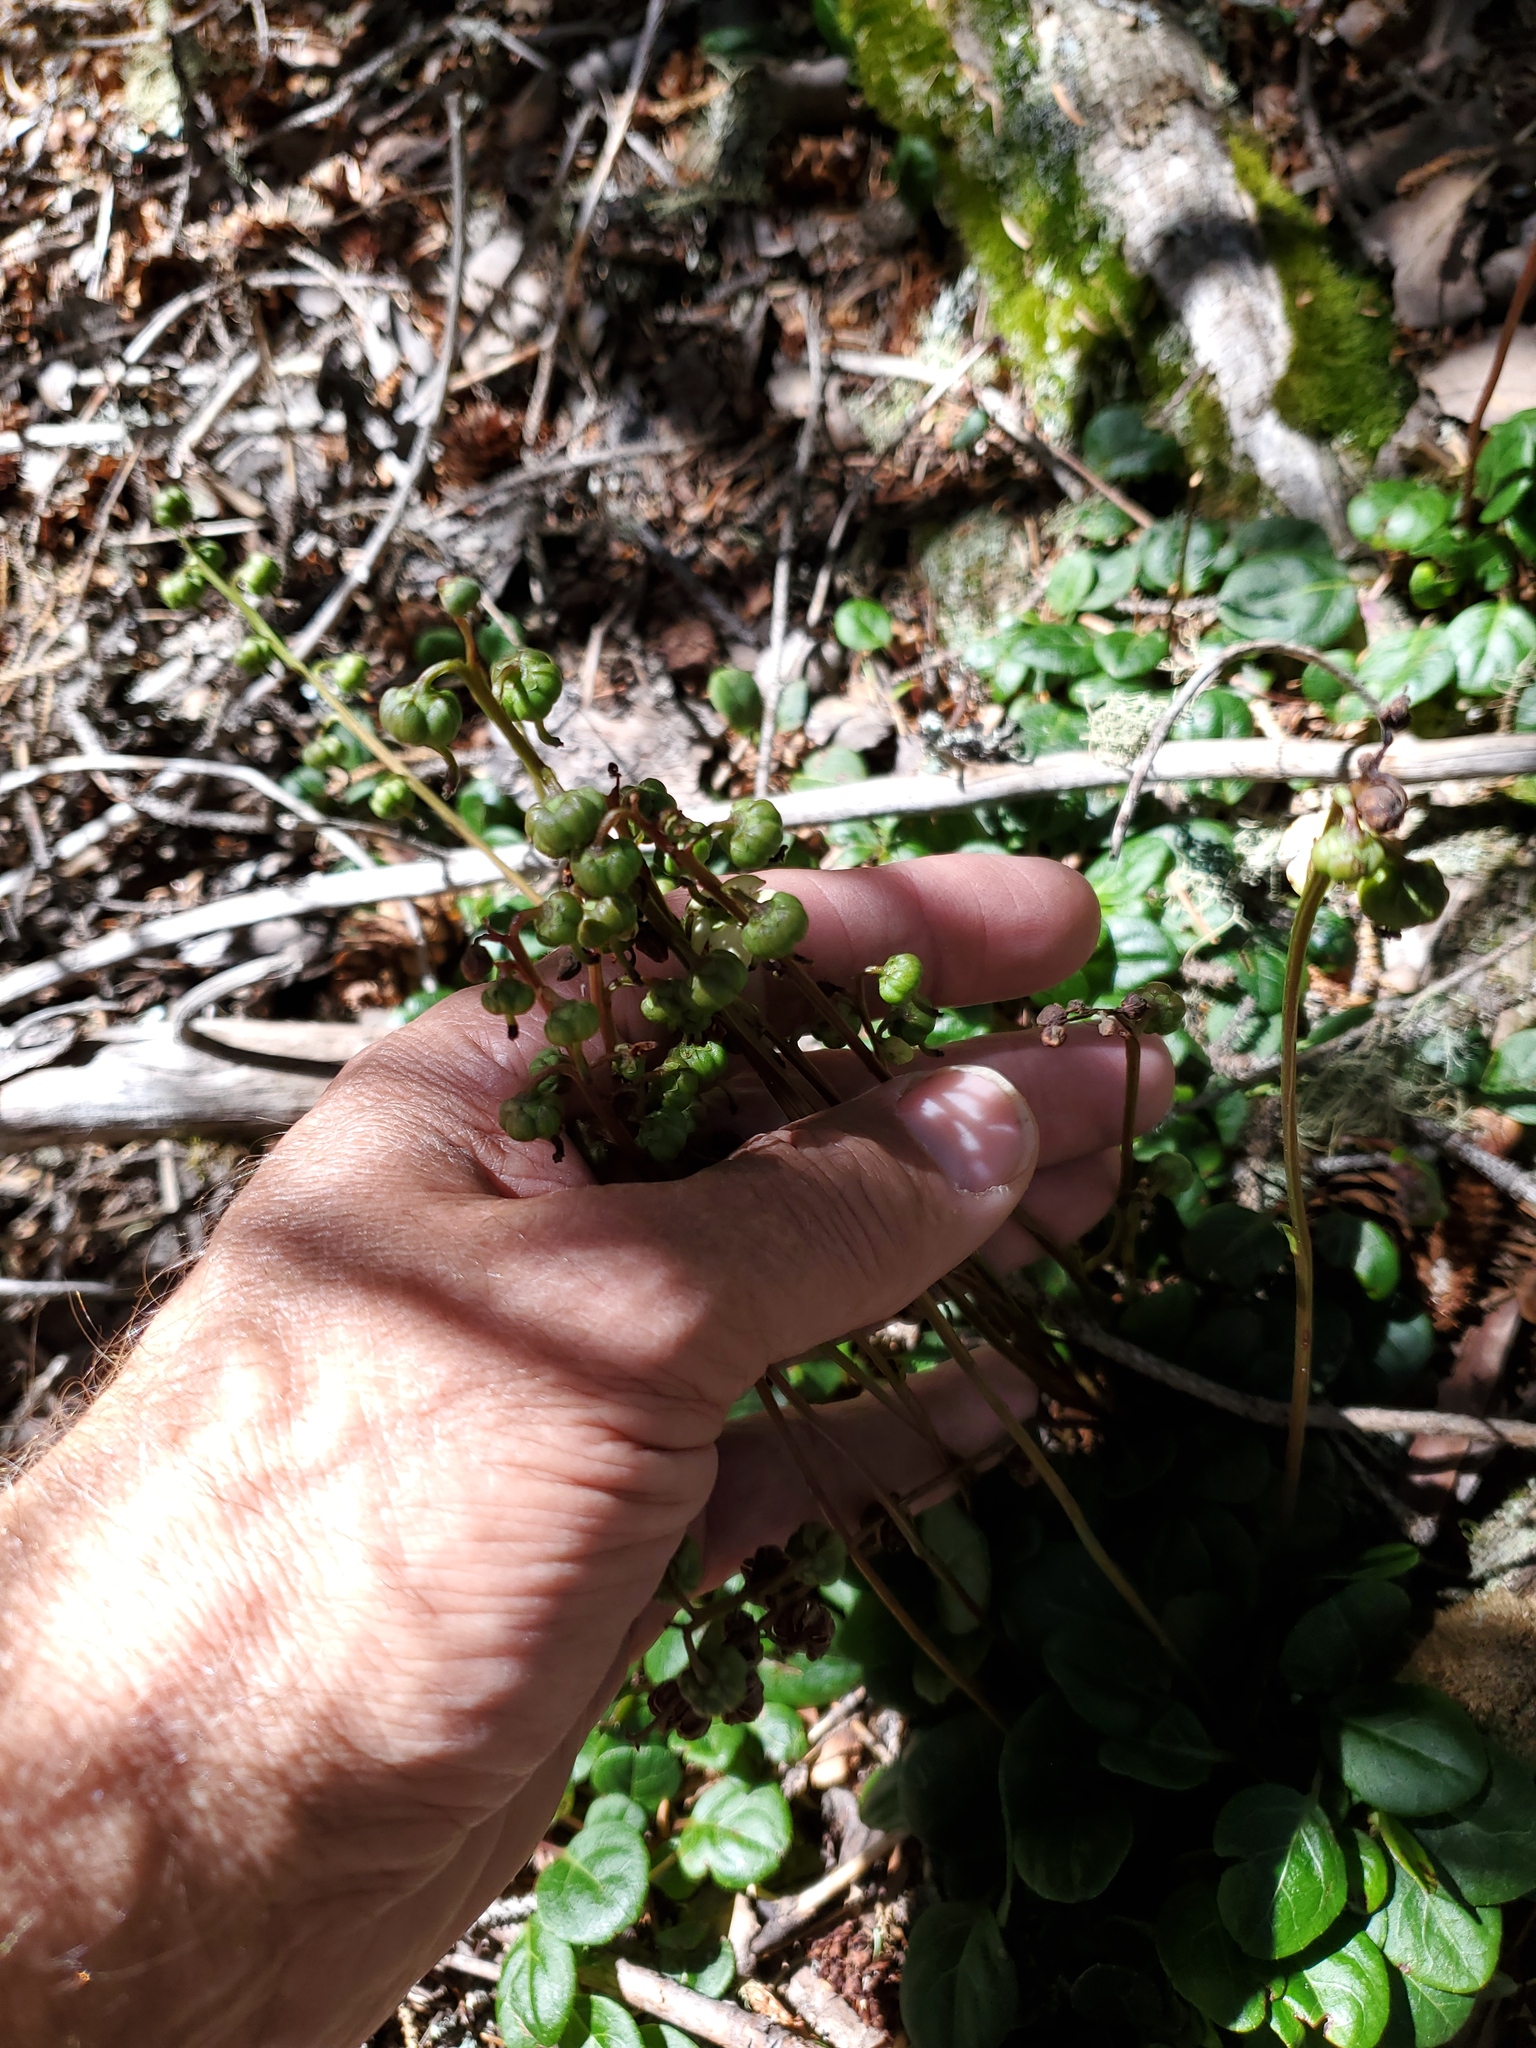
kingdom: Plantae
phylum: Tracheophyta
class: Magnoliopsida
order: Ericales
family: Ericaceae
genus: Pyrola
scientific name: Pyrola chlorantha
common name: Green wintergreen
